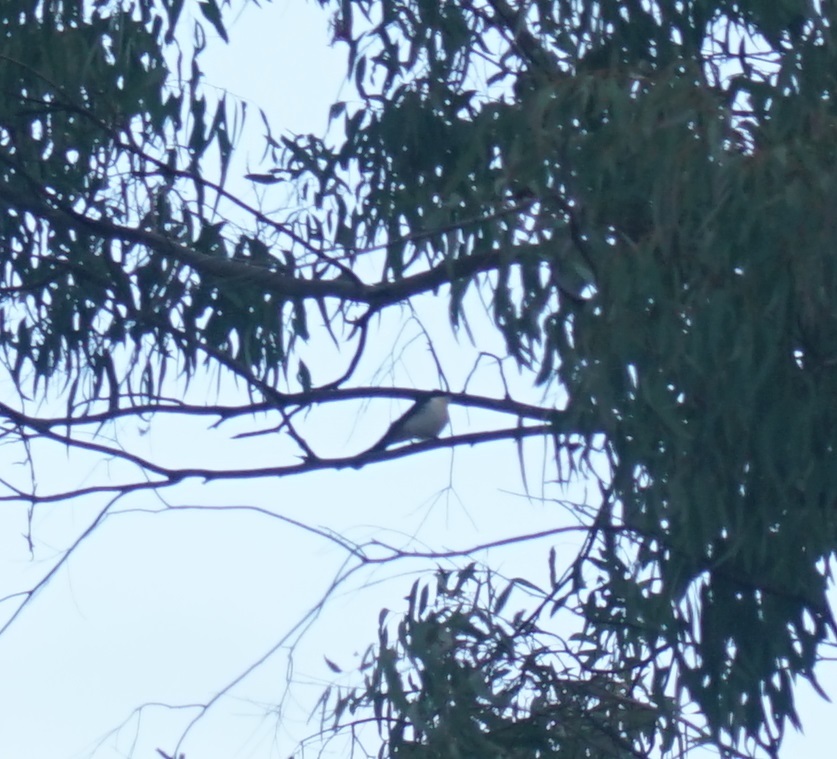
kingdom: Animalia
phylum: Chordata
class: Aves
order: Passeriformes
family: Monarchidae
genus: Myiagra
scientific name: Myiagra inquieta
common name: Restless flycatcher
